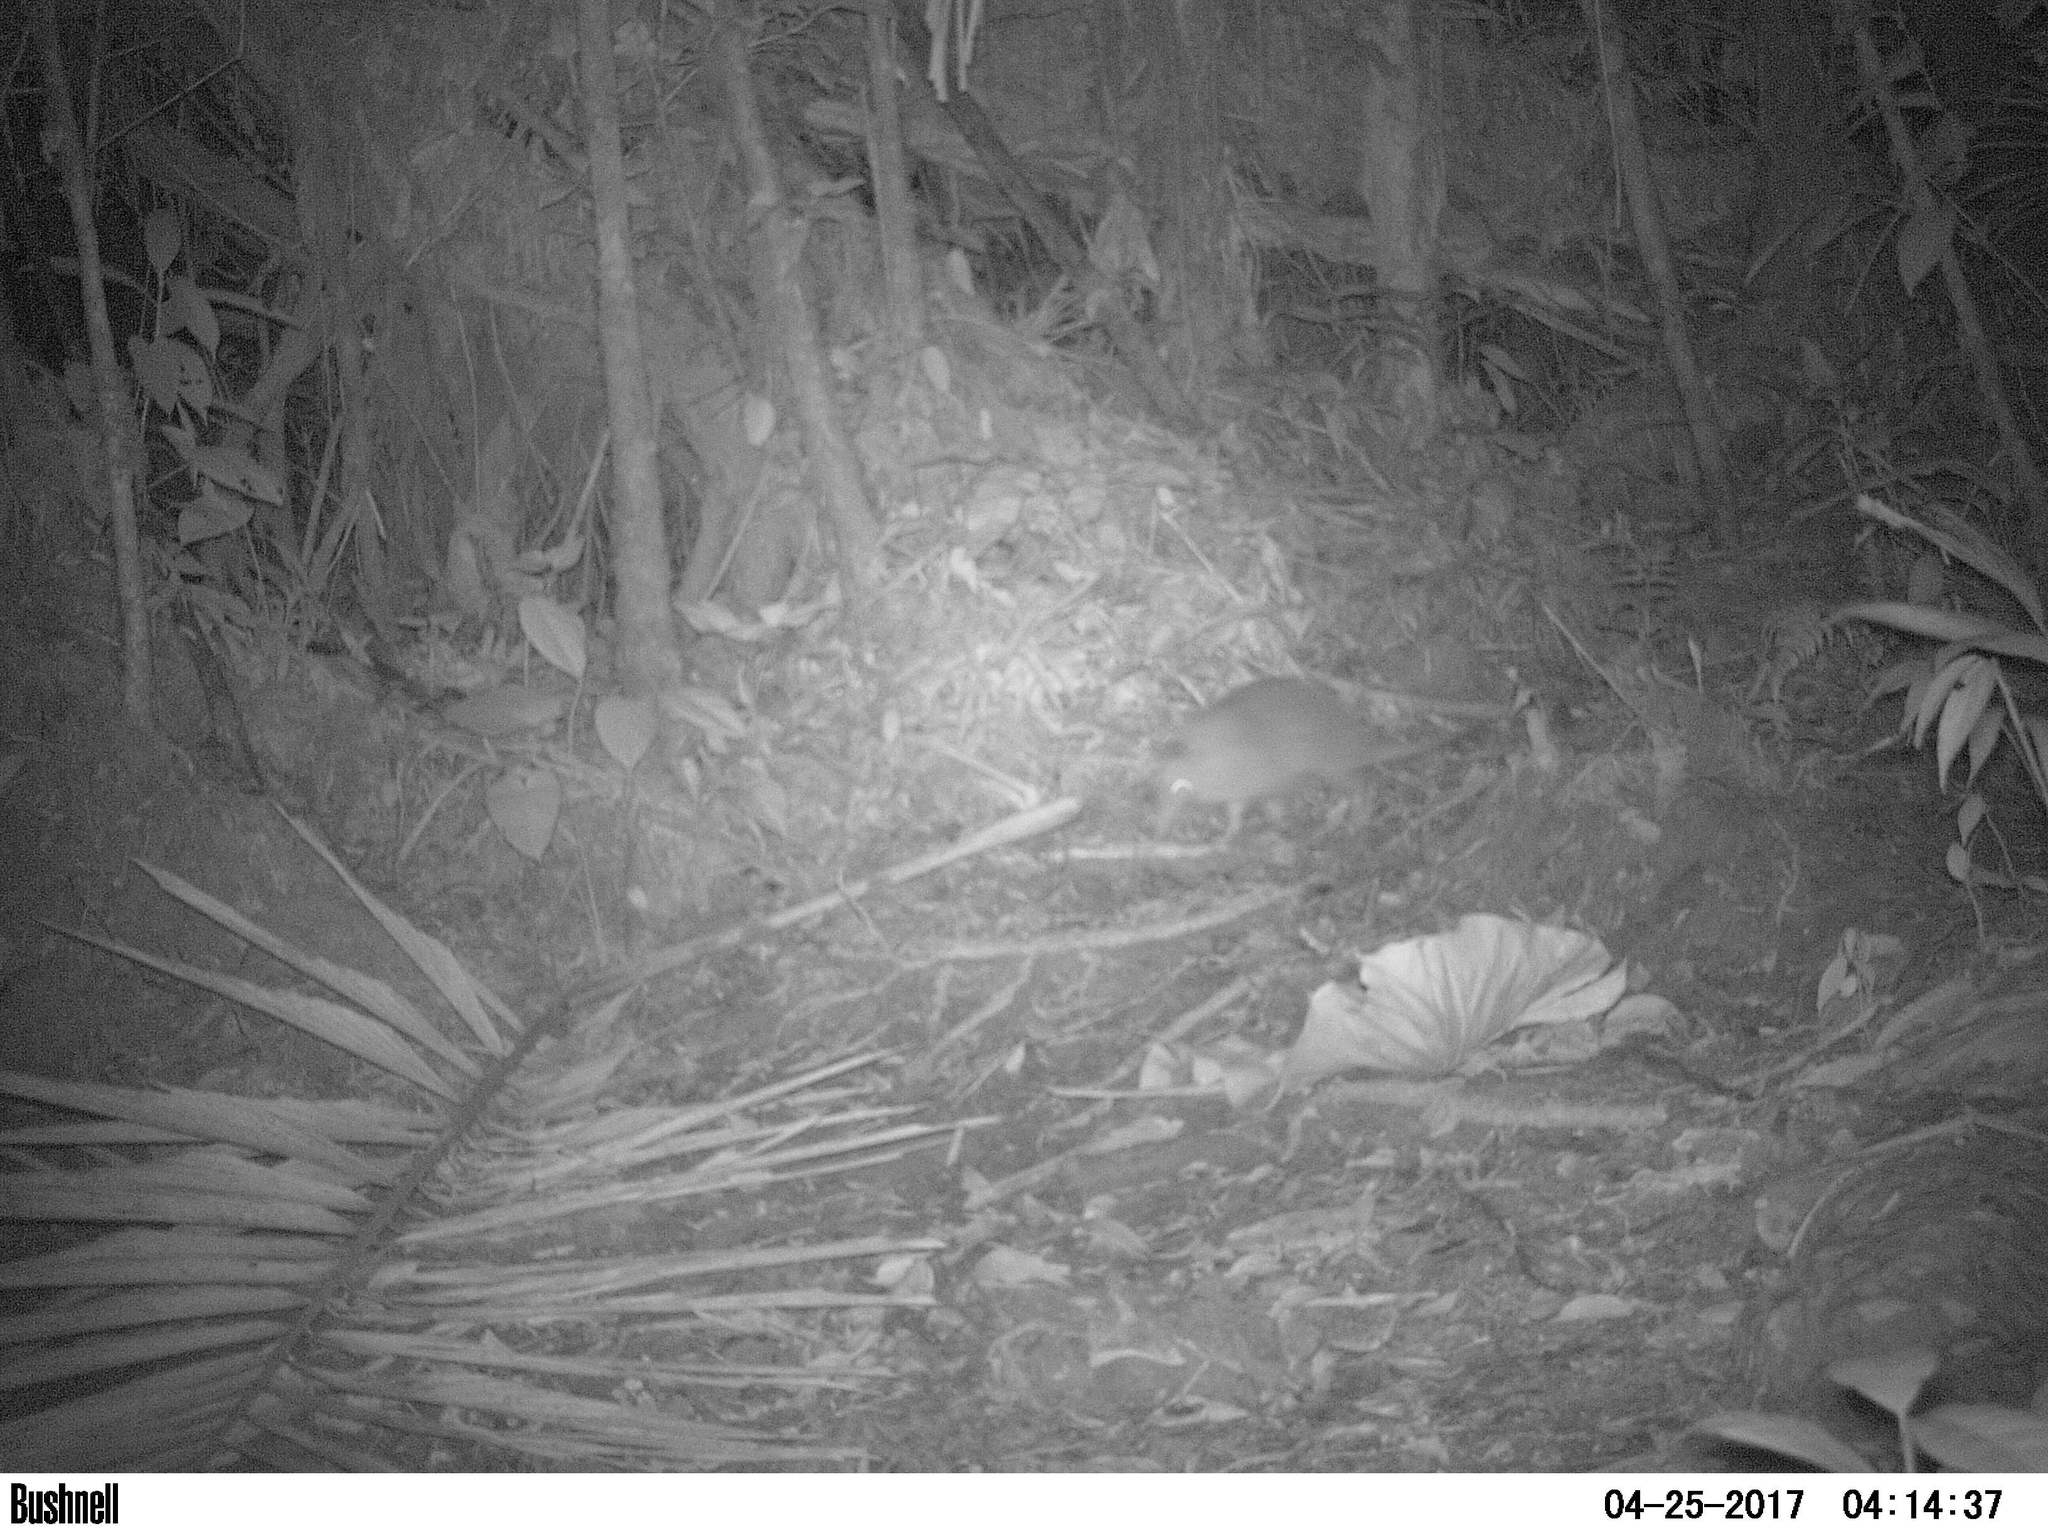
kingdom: Animalia
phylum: Chordata
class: Mammalia
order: Cingulata
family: Dasypodidae
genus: Dasypus
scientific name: Dasypus novemcinctus
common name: Nine-banded armadillo
